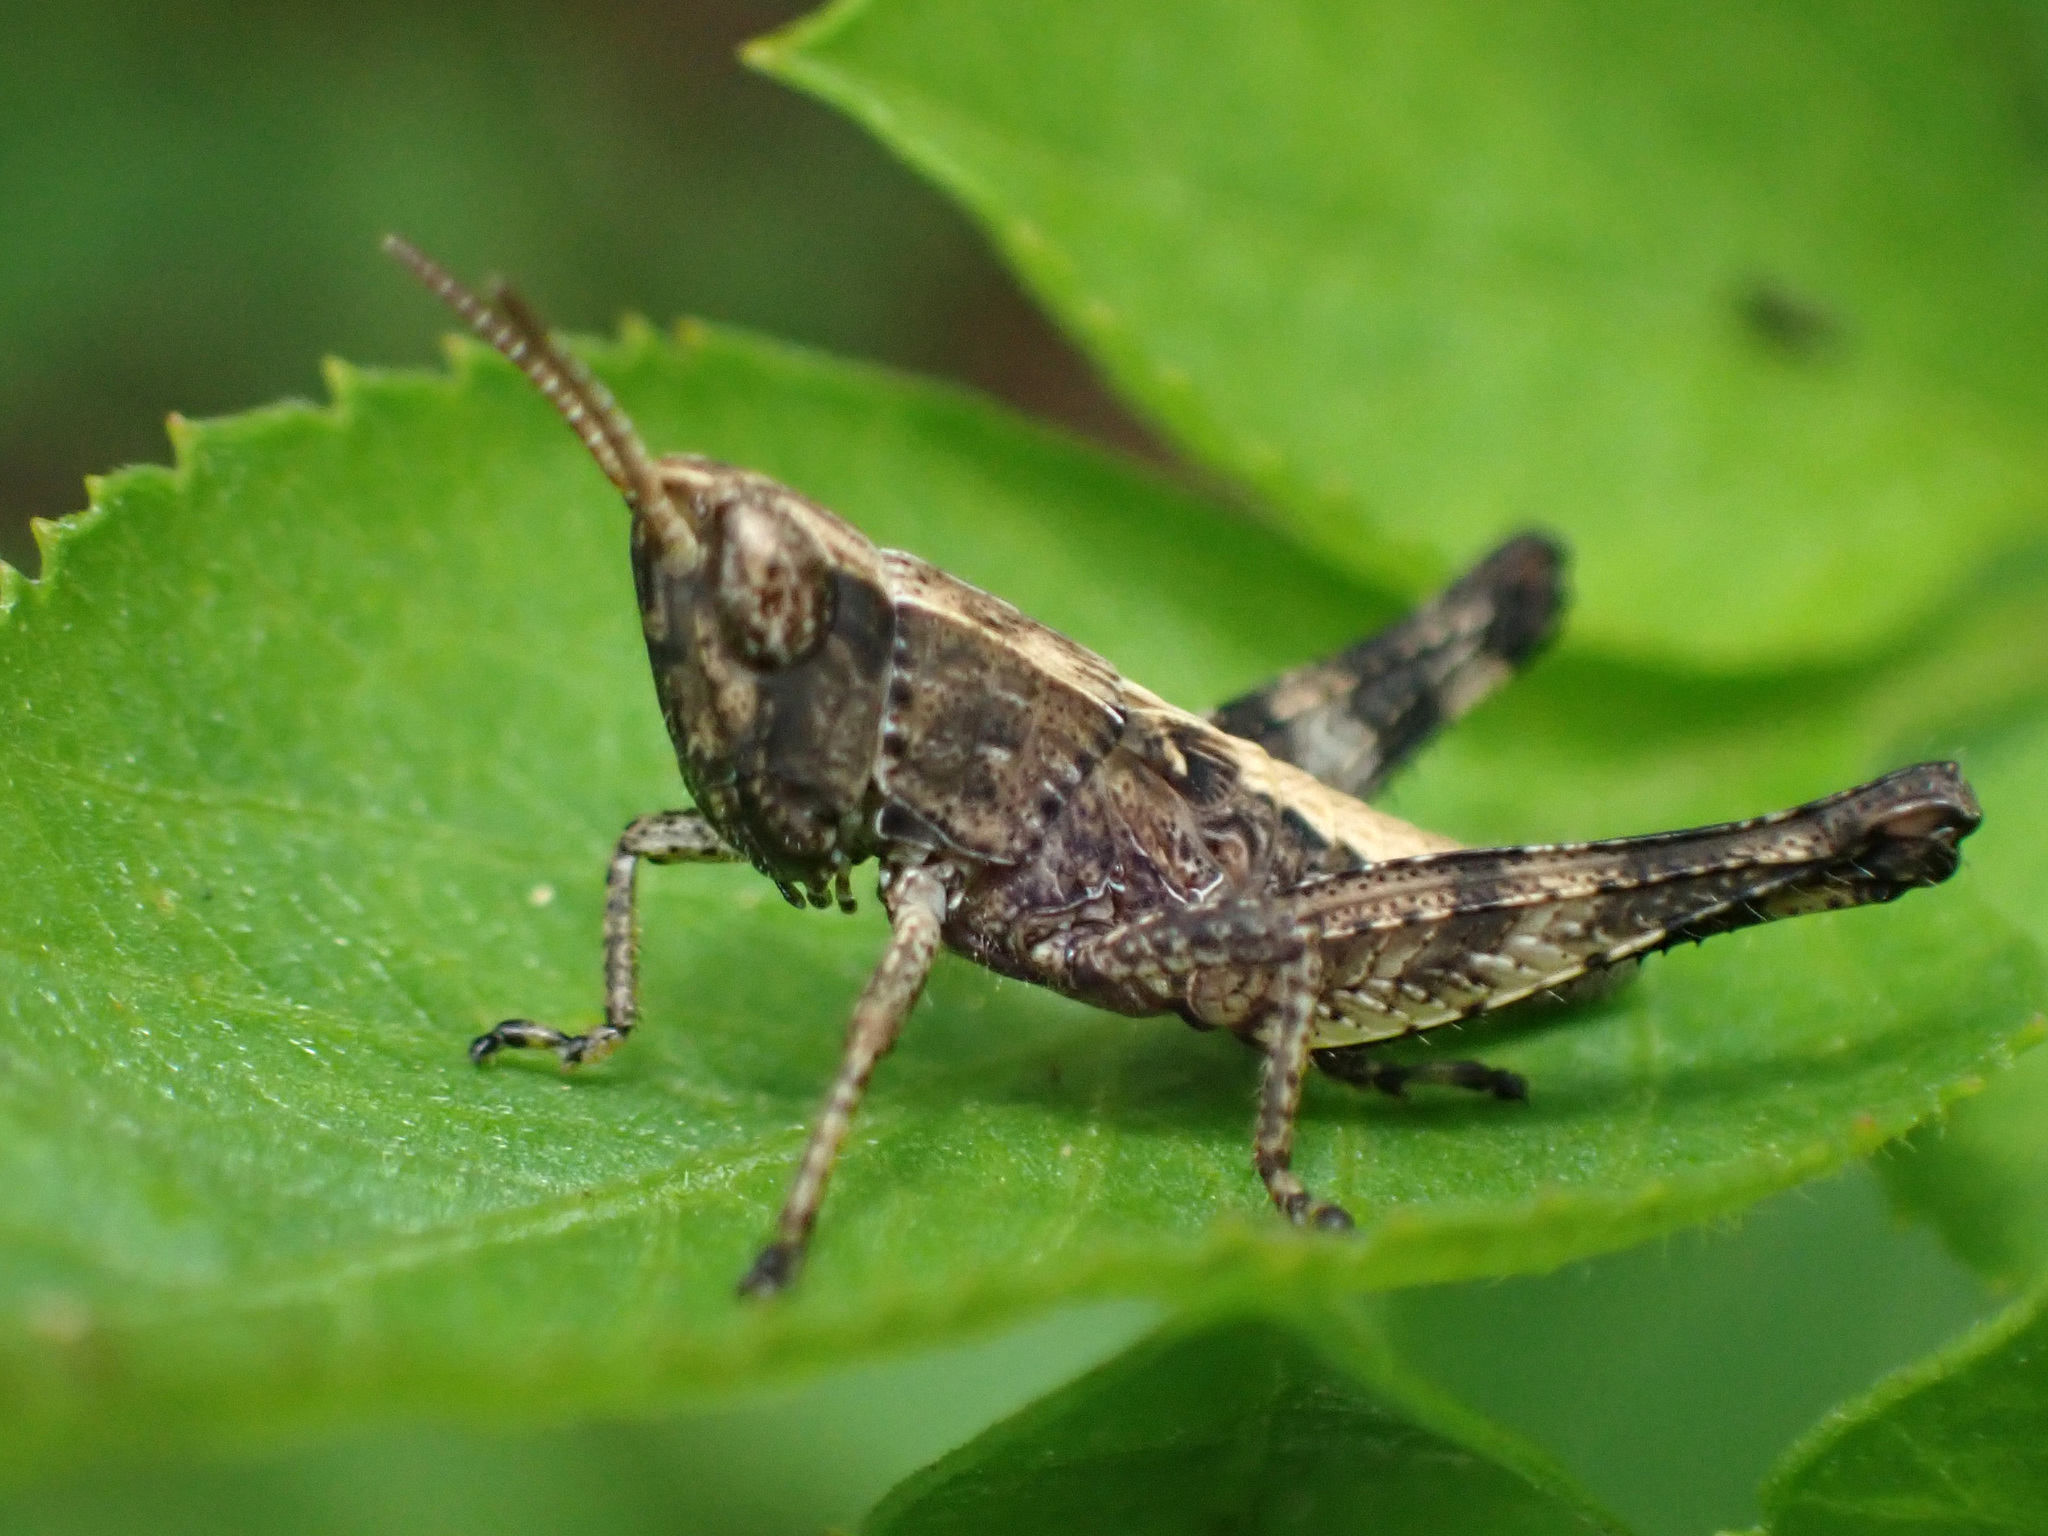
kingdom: Animalia
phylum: Arthropoda
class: Insecta
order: Orthoptera
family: Acrididae
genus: Dichromorpha
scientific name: Dichromorpha viridis
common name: Short-winged green grasshopper
